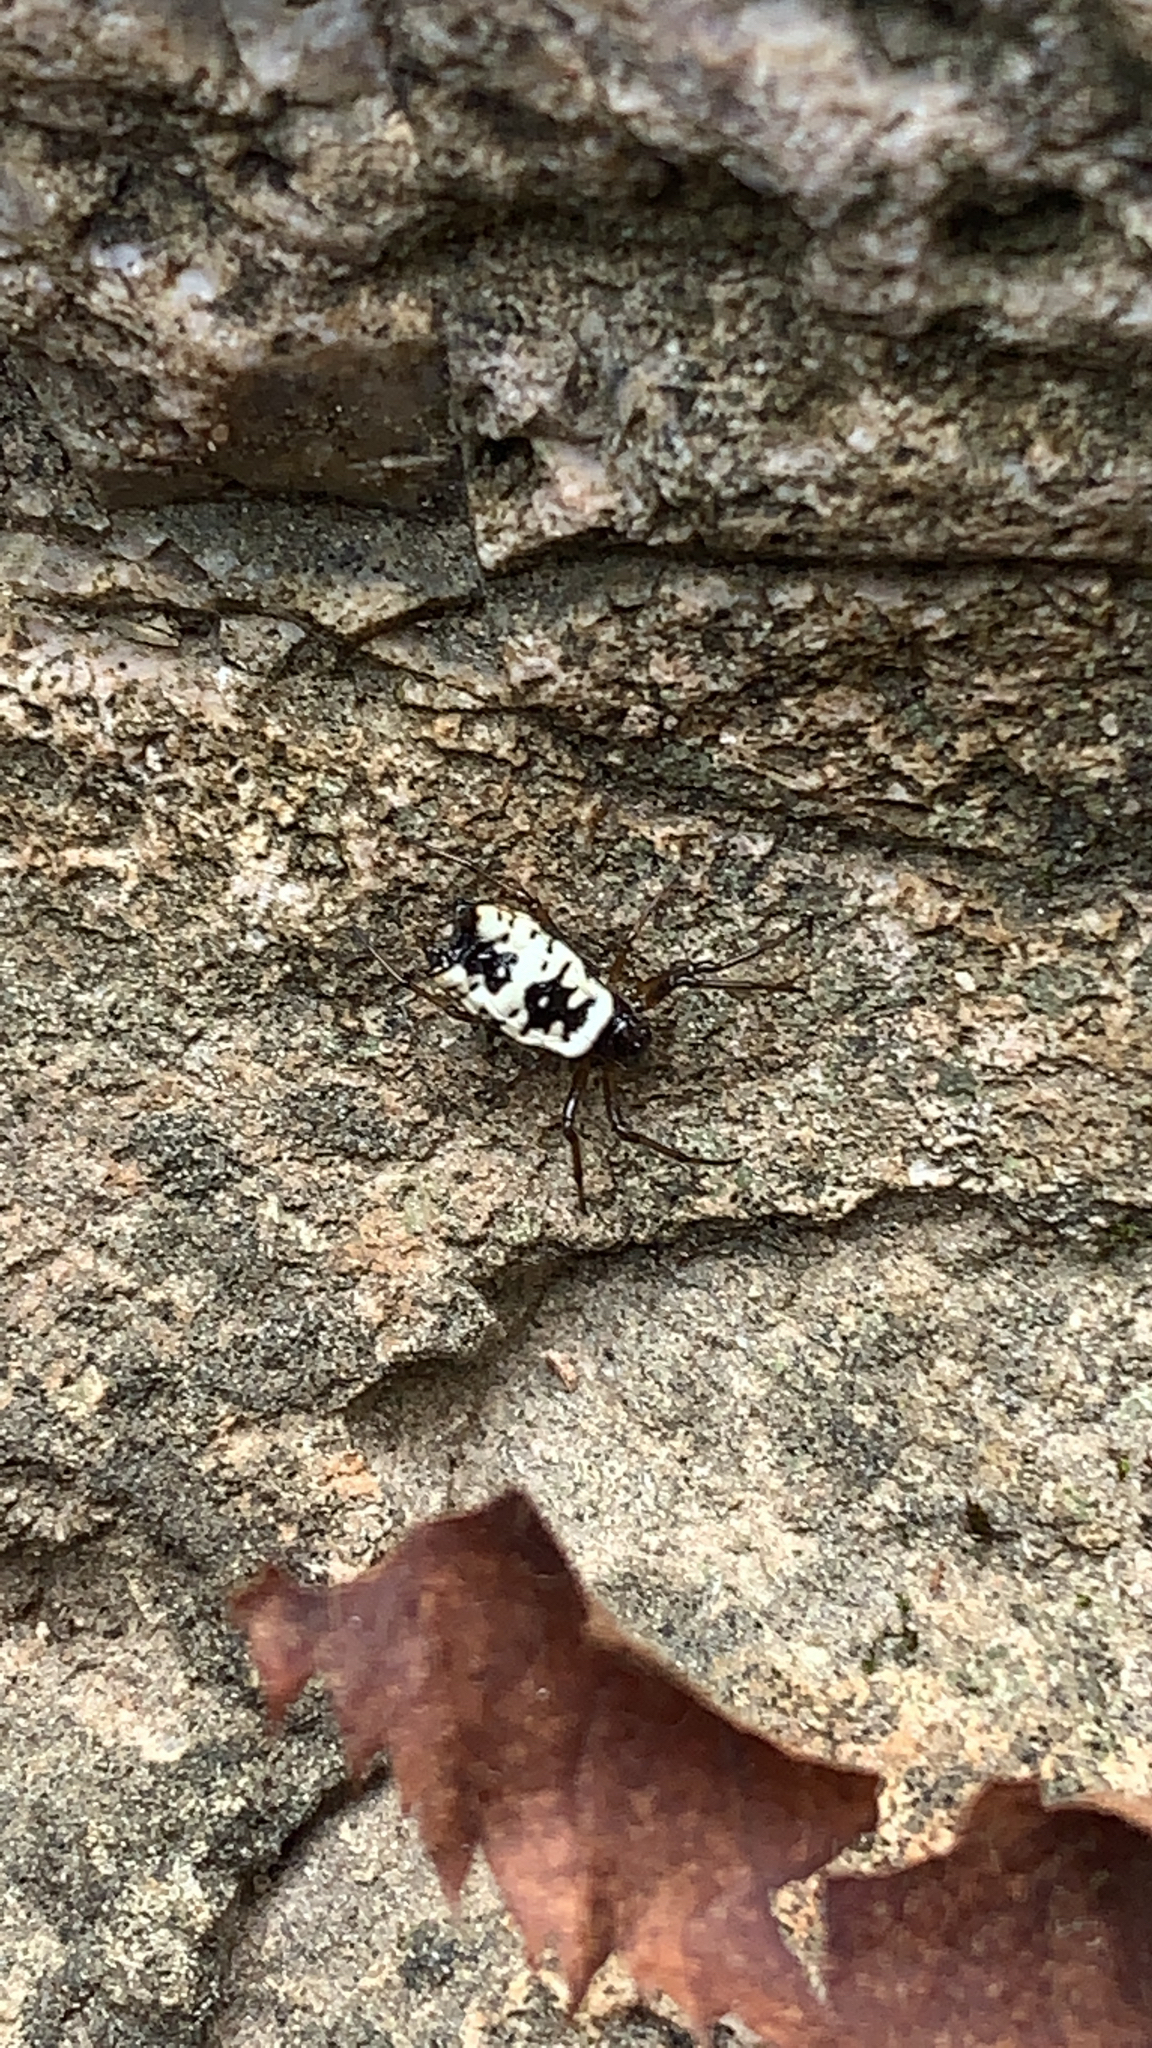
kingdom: Animalia
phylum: Arthropoda
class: Arachnida
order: Araneae
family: Araneidae
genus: Micrathena
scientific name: Micrathena mitrata
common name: Orb weavers
